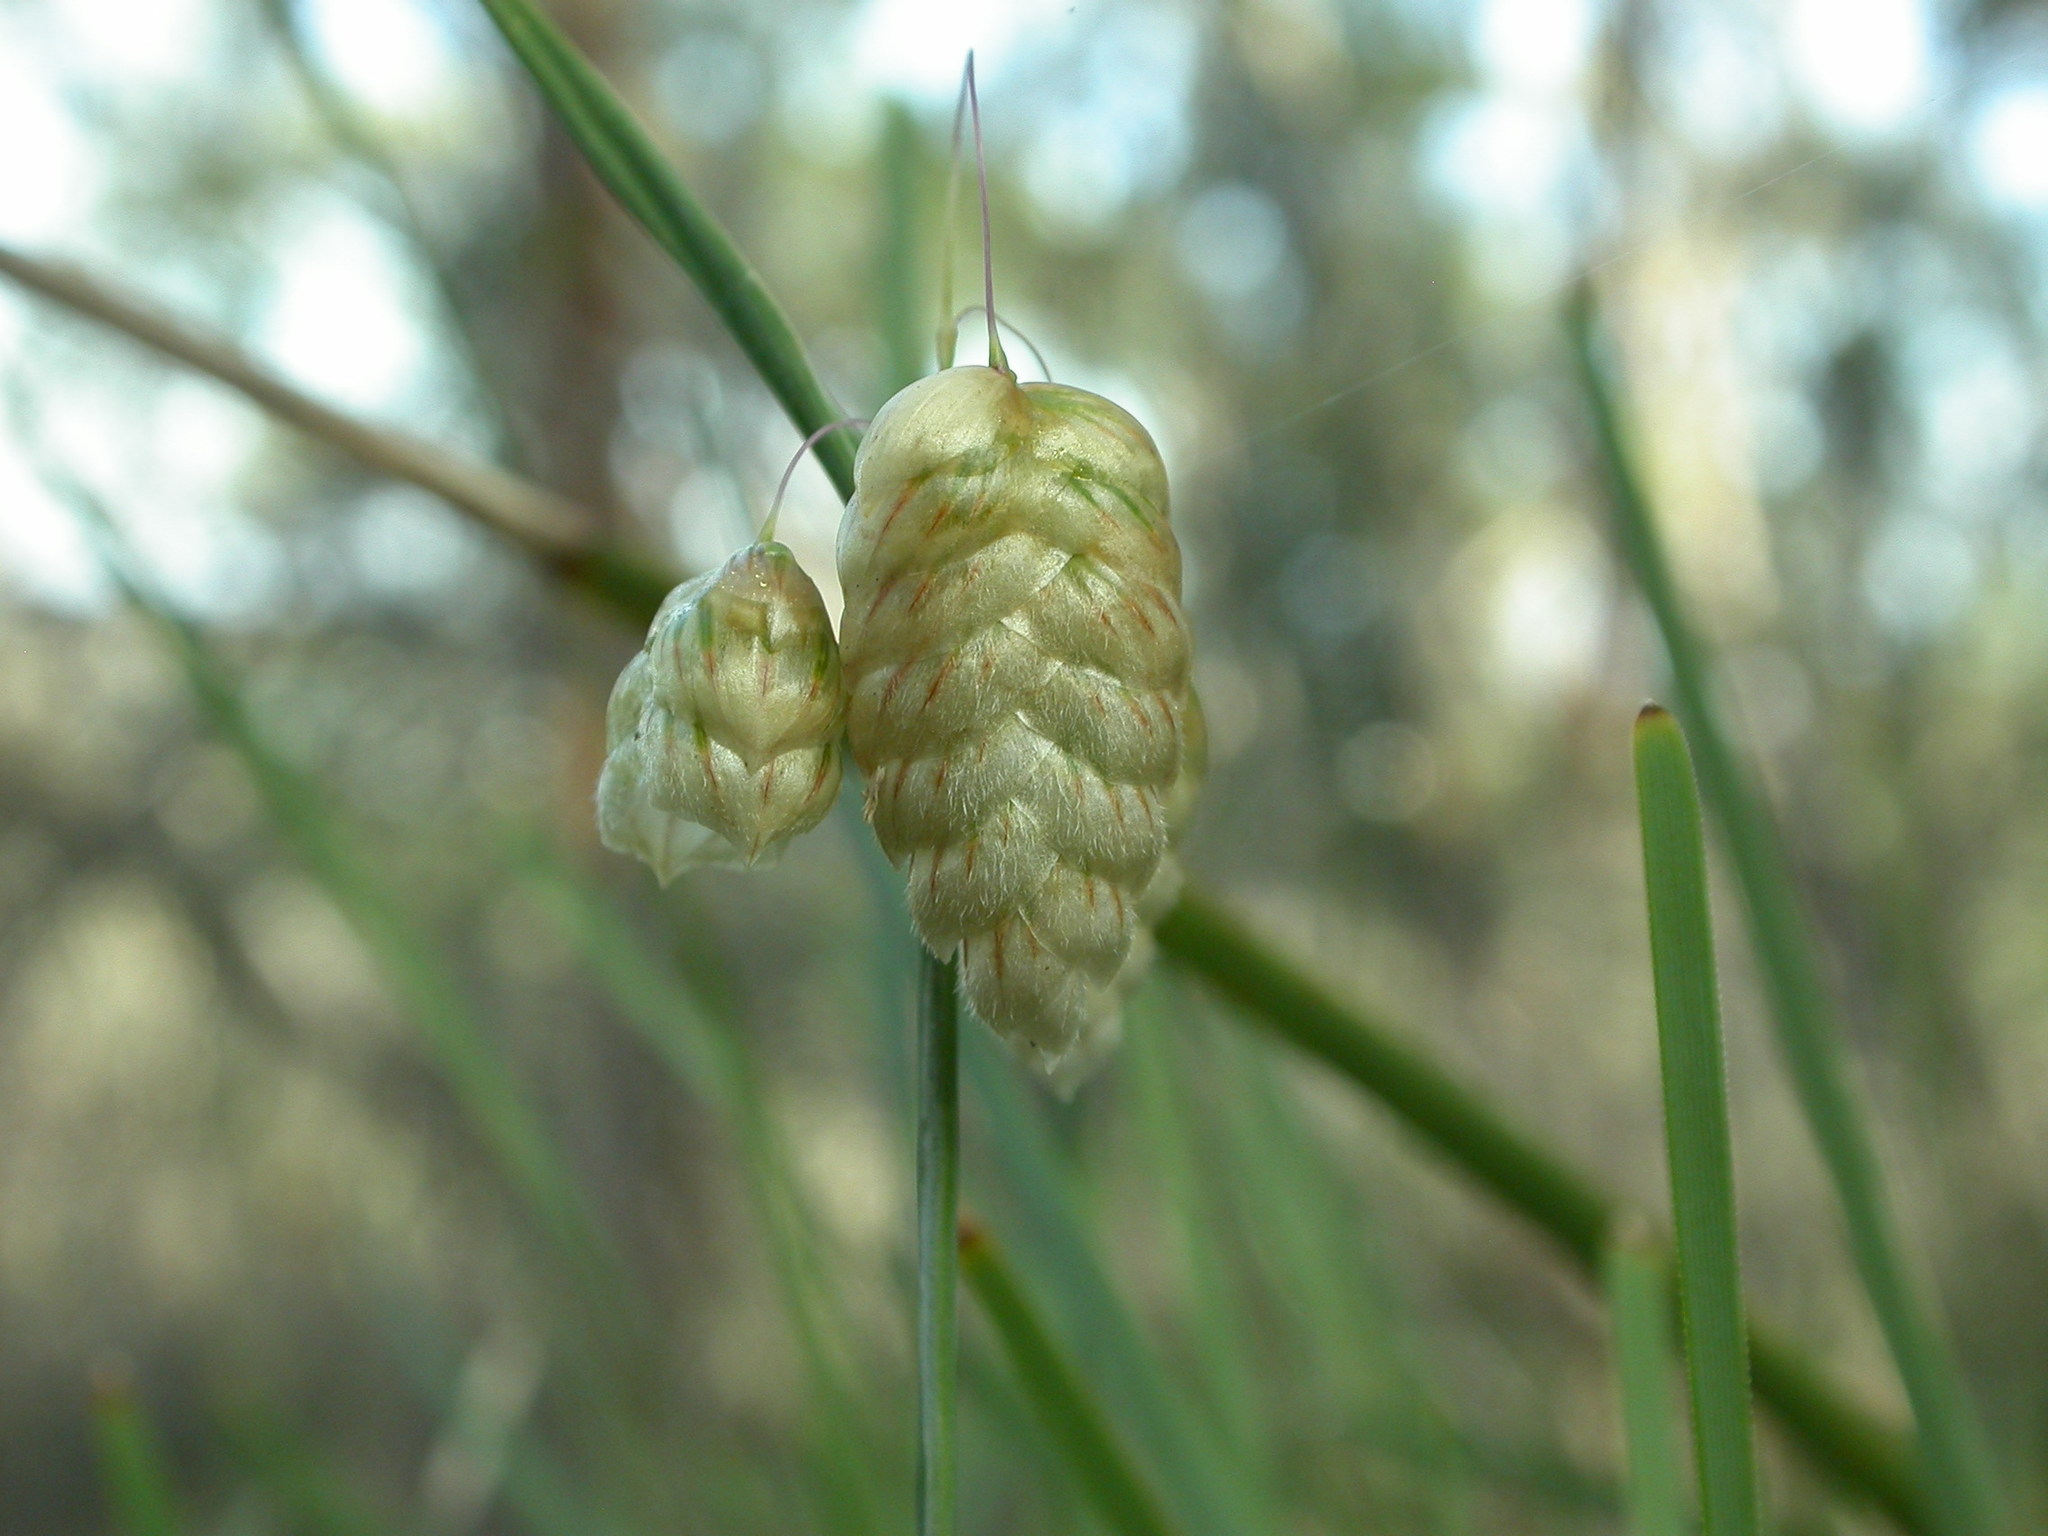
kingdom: Plantae
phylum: Tracheophyta
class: Liliopsida
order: Poales
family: Poaceae
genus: Briza
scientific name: Briza maxima
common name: Big quakinggrass
